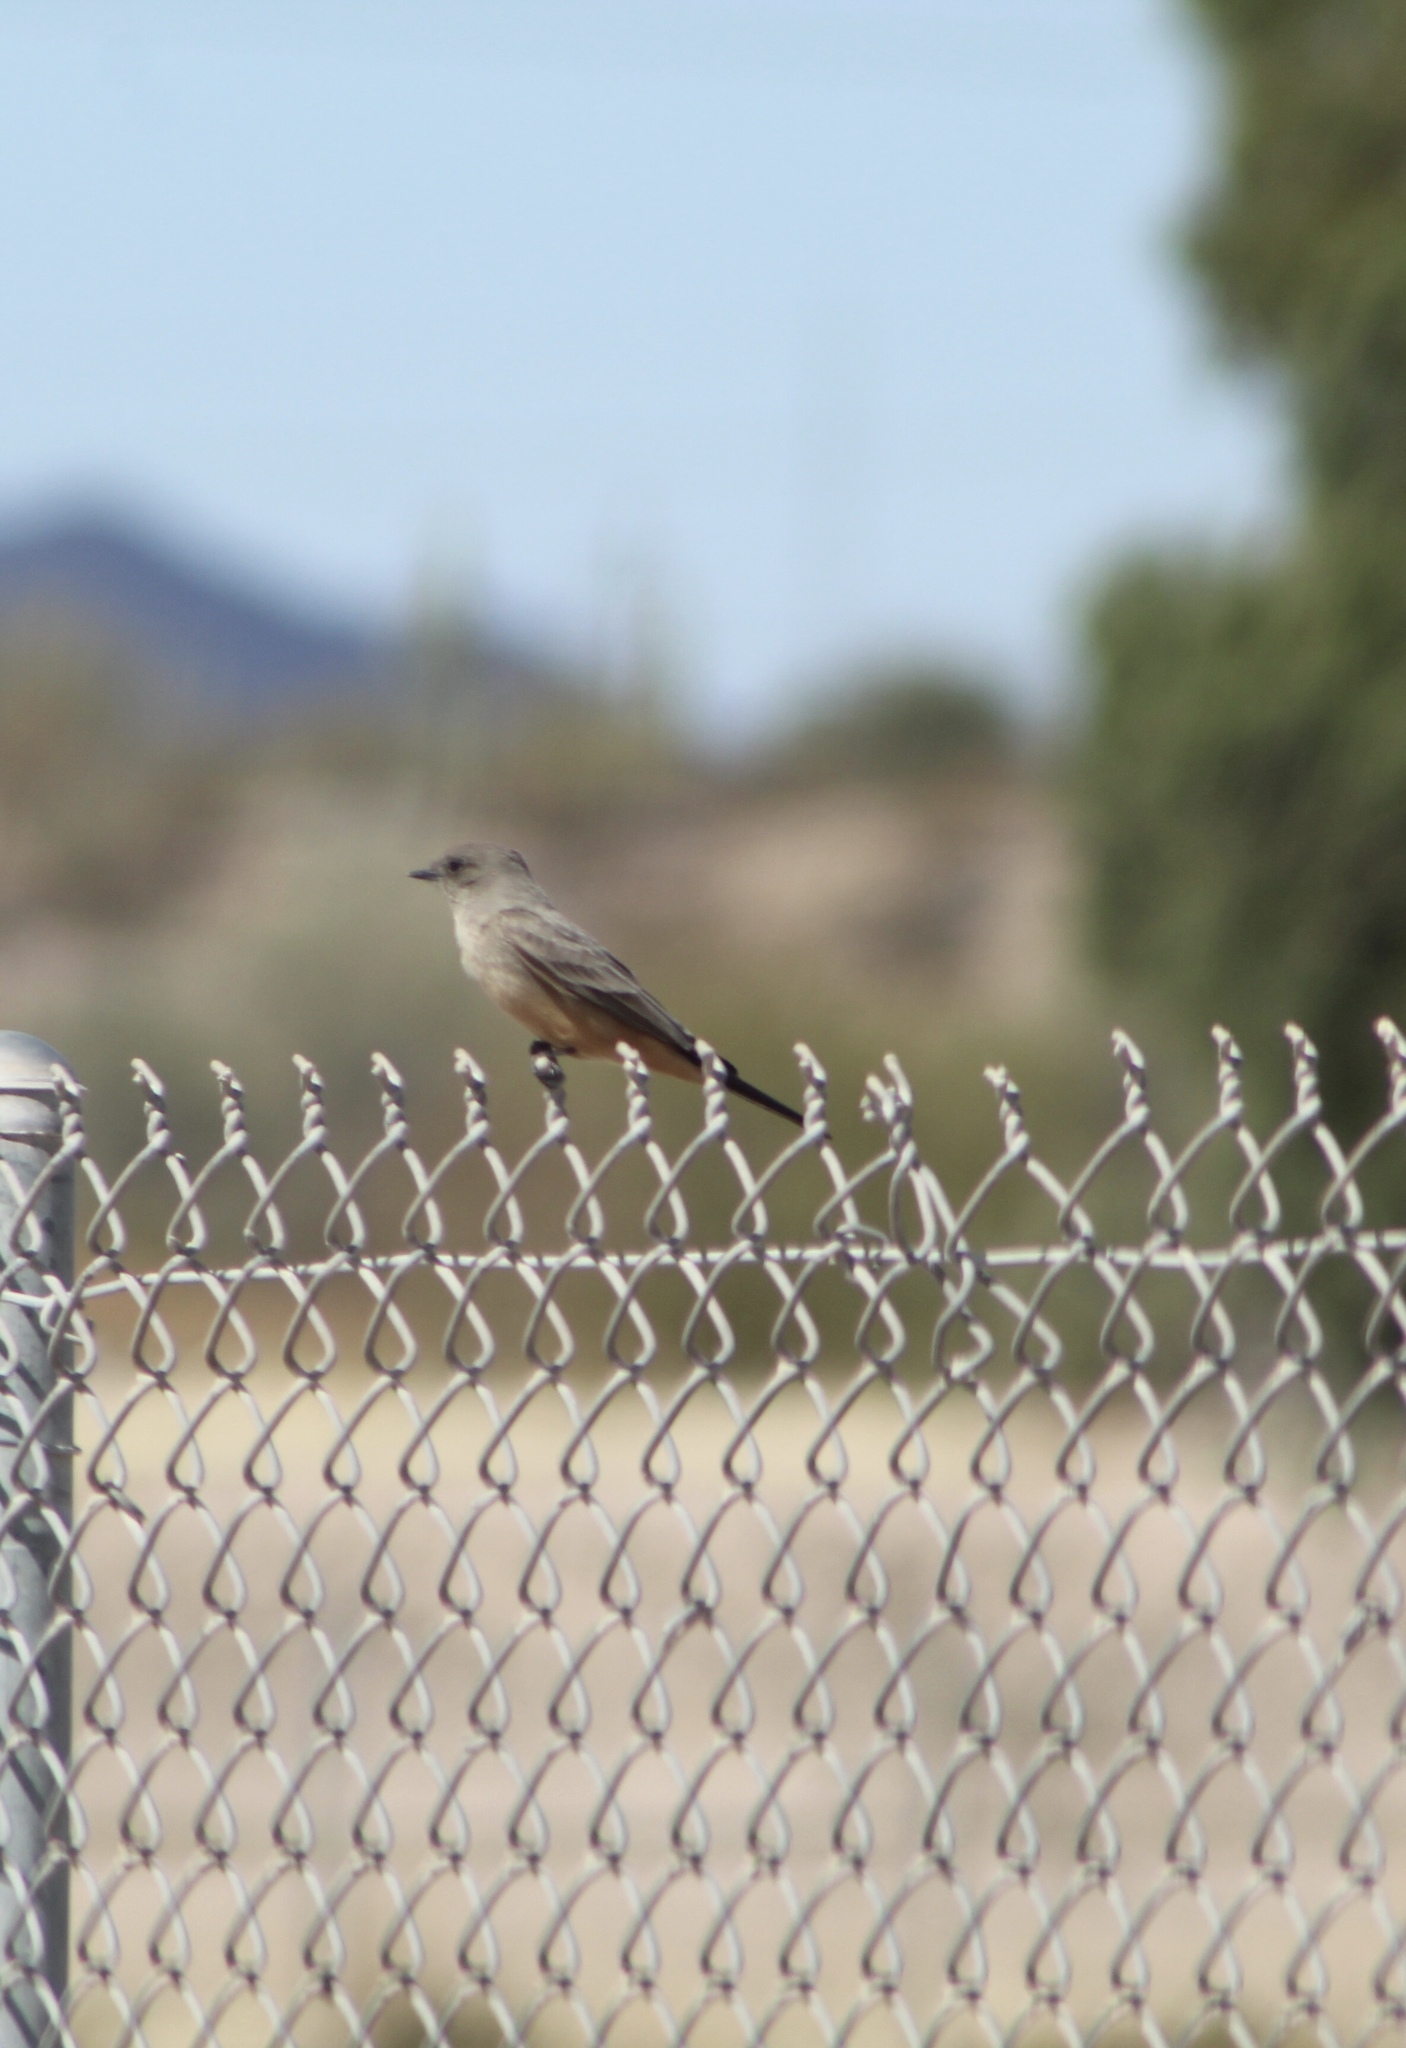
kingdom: Animalia
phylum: Chordata
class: Aves
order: Passeriformes
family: Tyrannidae
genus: Sayornis
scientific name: Sayornis saya
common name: Say's phoebe
